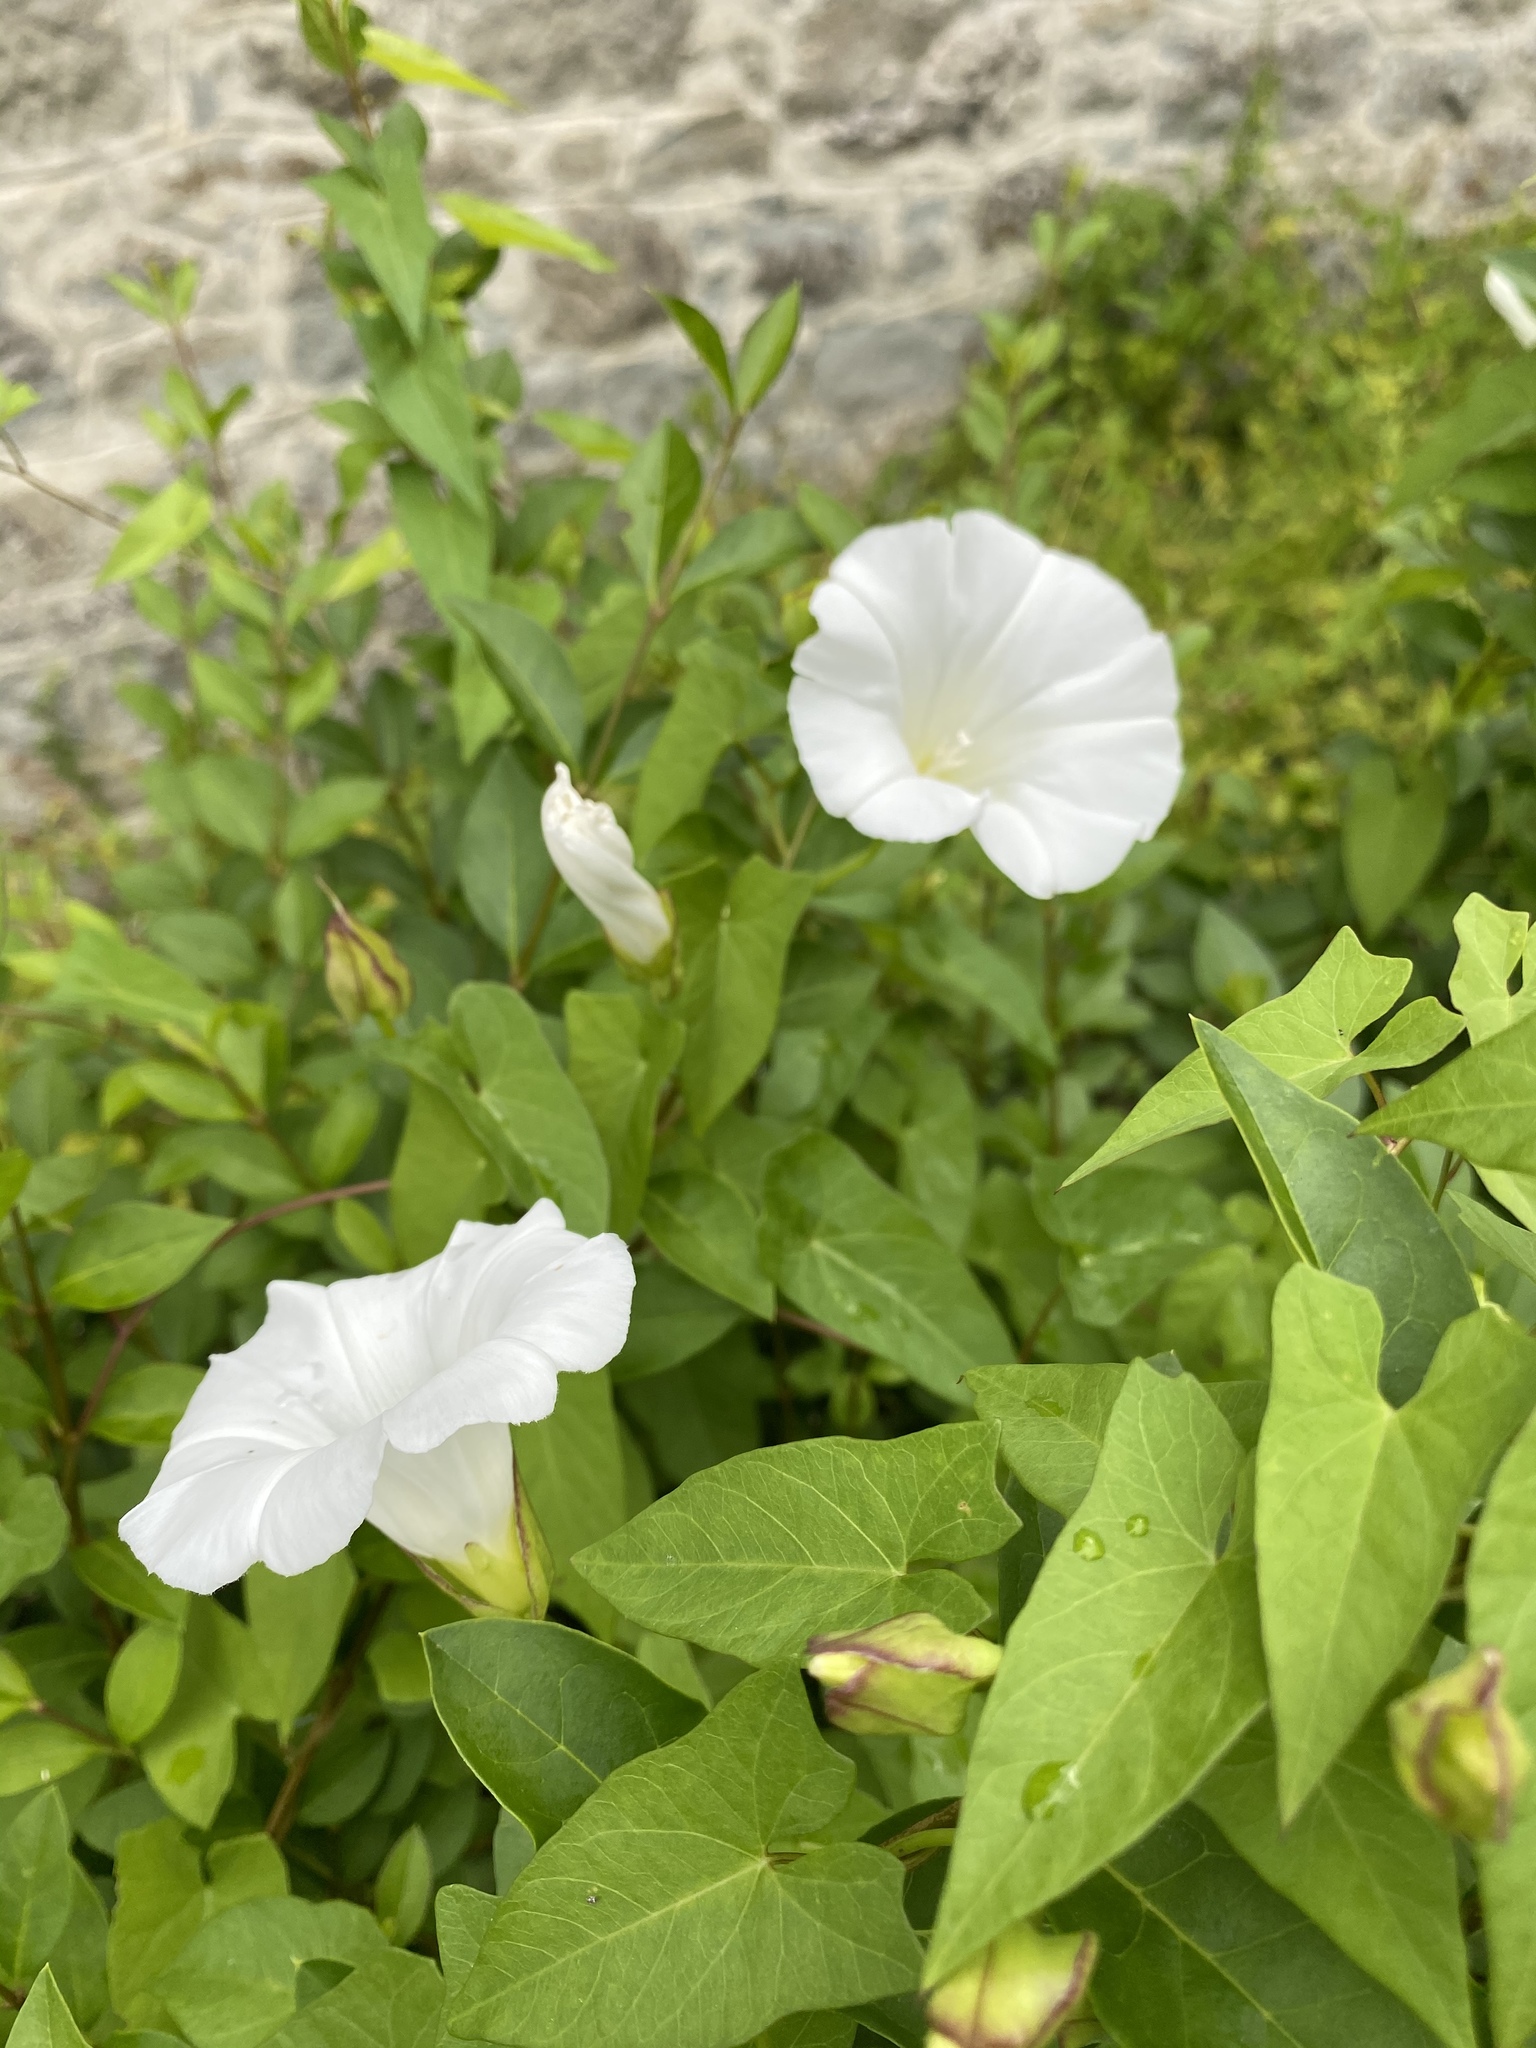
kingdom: Plantae
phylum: Tracheophyta
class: Magnoliopsida
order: Solanales
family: Convolvulaceae
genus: Calystegia
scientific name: Calystegia sepium
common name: Hedge bindweed
